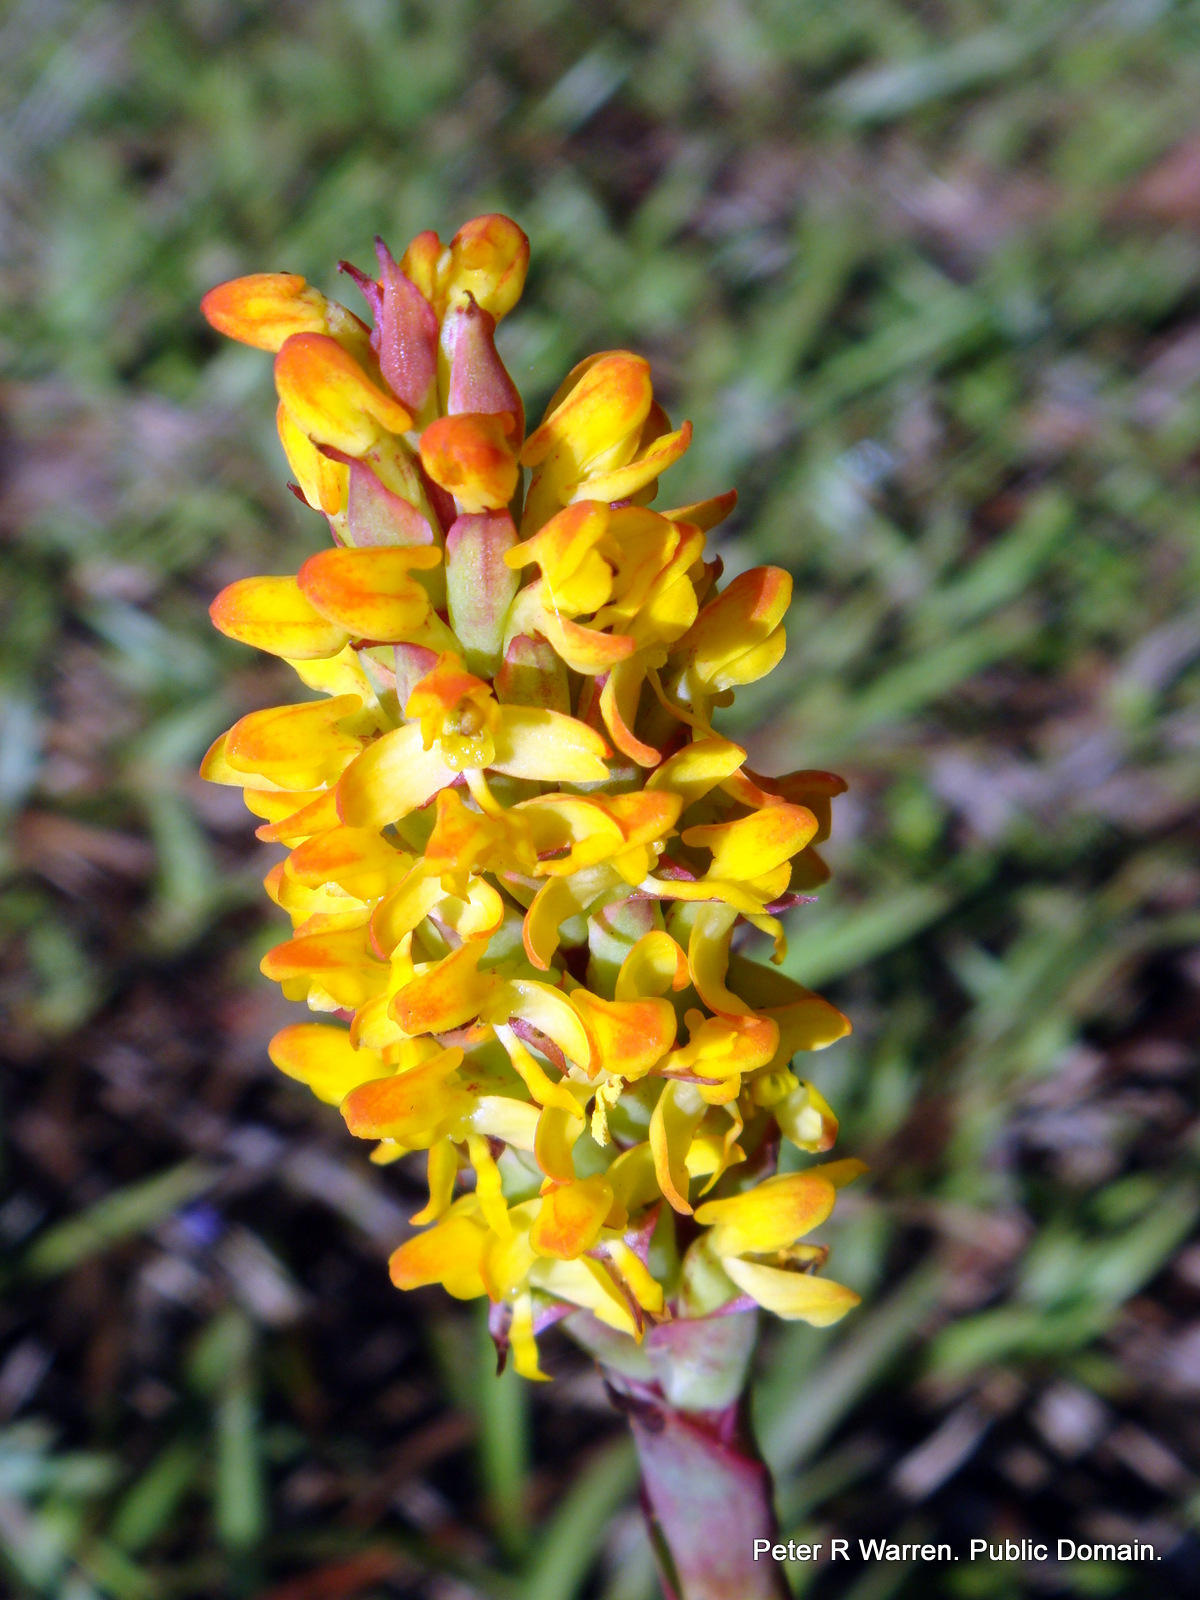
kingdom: Plantae
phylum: Tracheophyta
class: Liliopsida
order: Asparagales
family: Orchidaceae
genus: Disa
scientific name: Disa woodii
